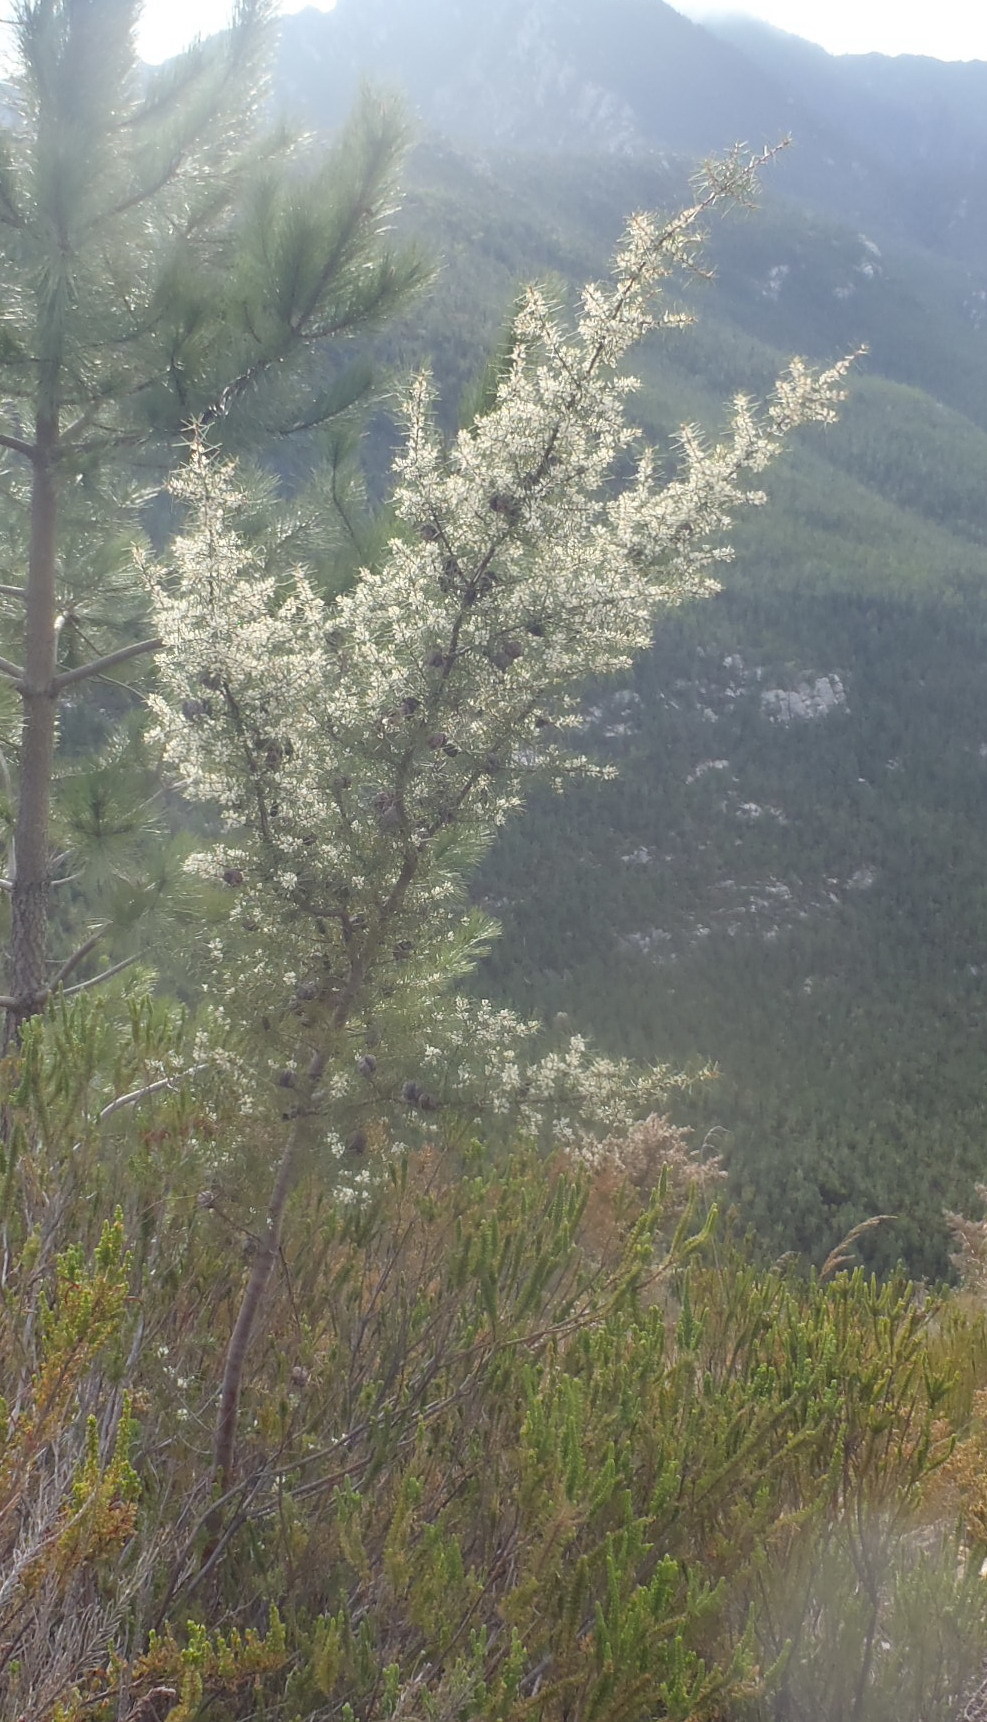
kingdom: Plantae
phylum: Tracheophyta
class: Magnoliopsida
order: Proteales
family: Proteaceae
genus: Hakea
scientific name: Hakea sericea
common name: Needle bush
